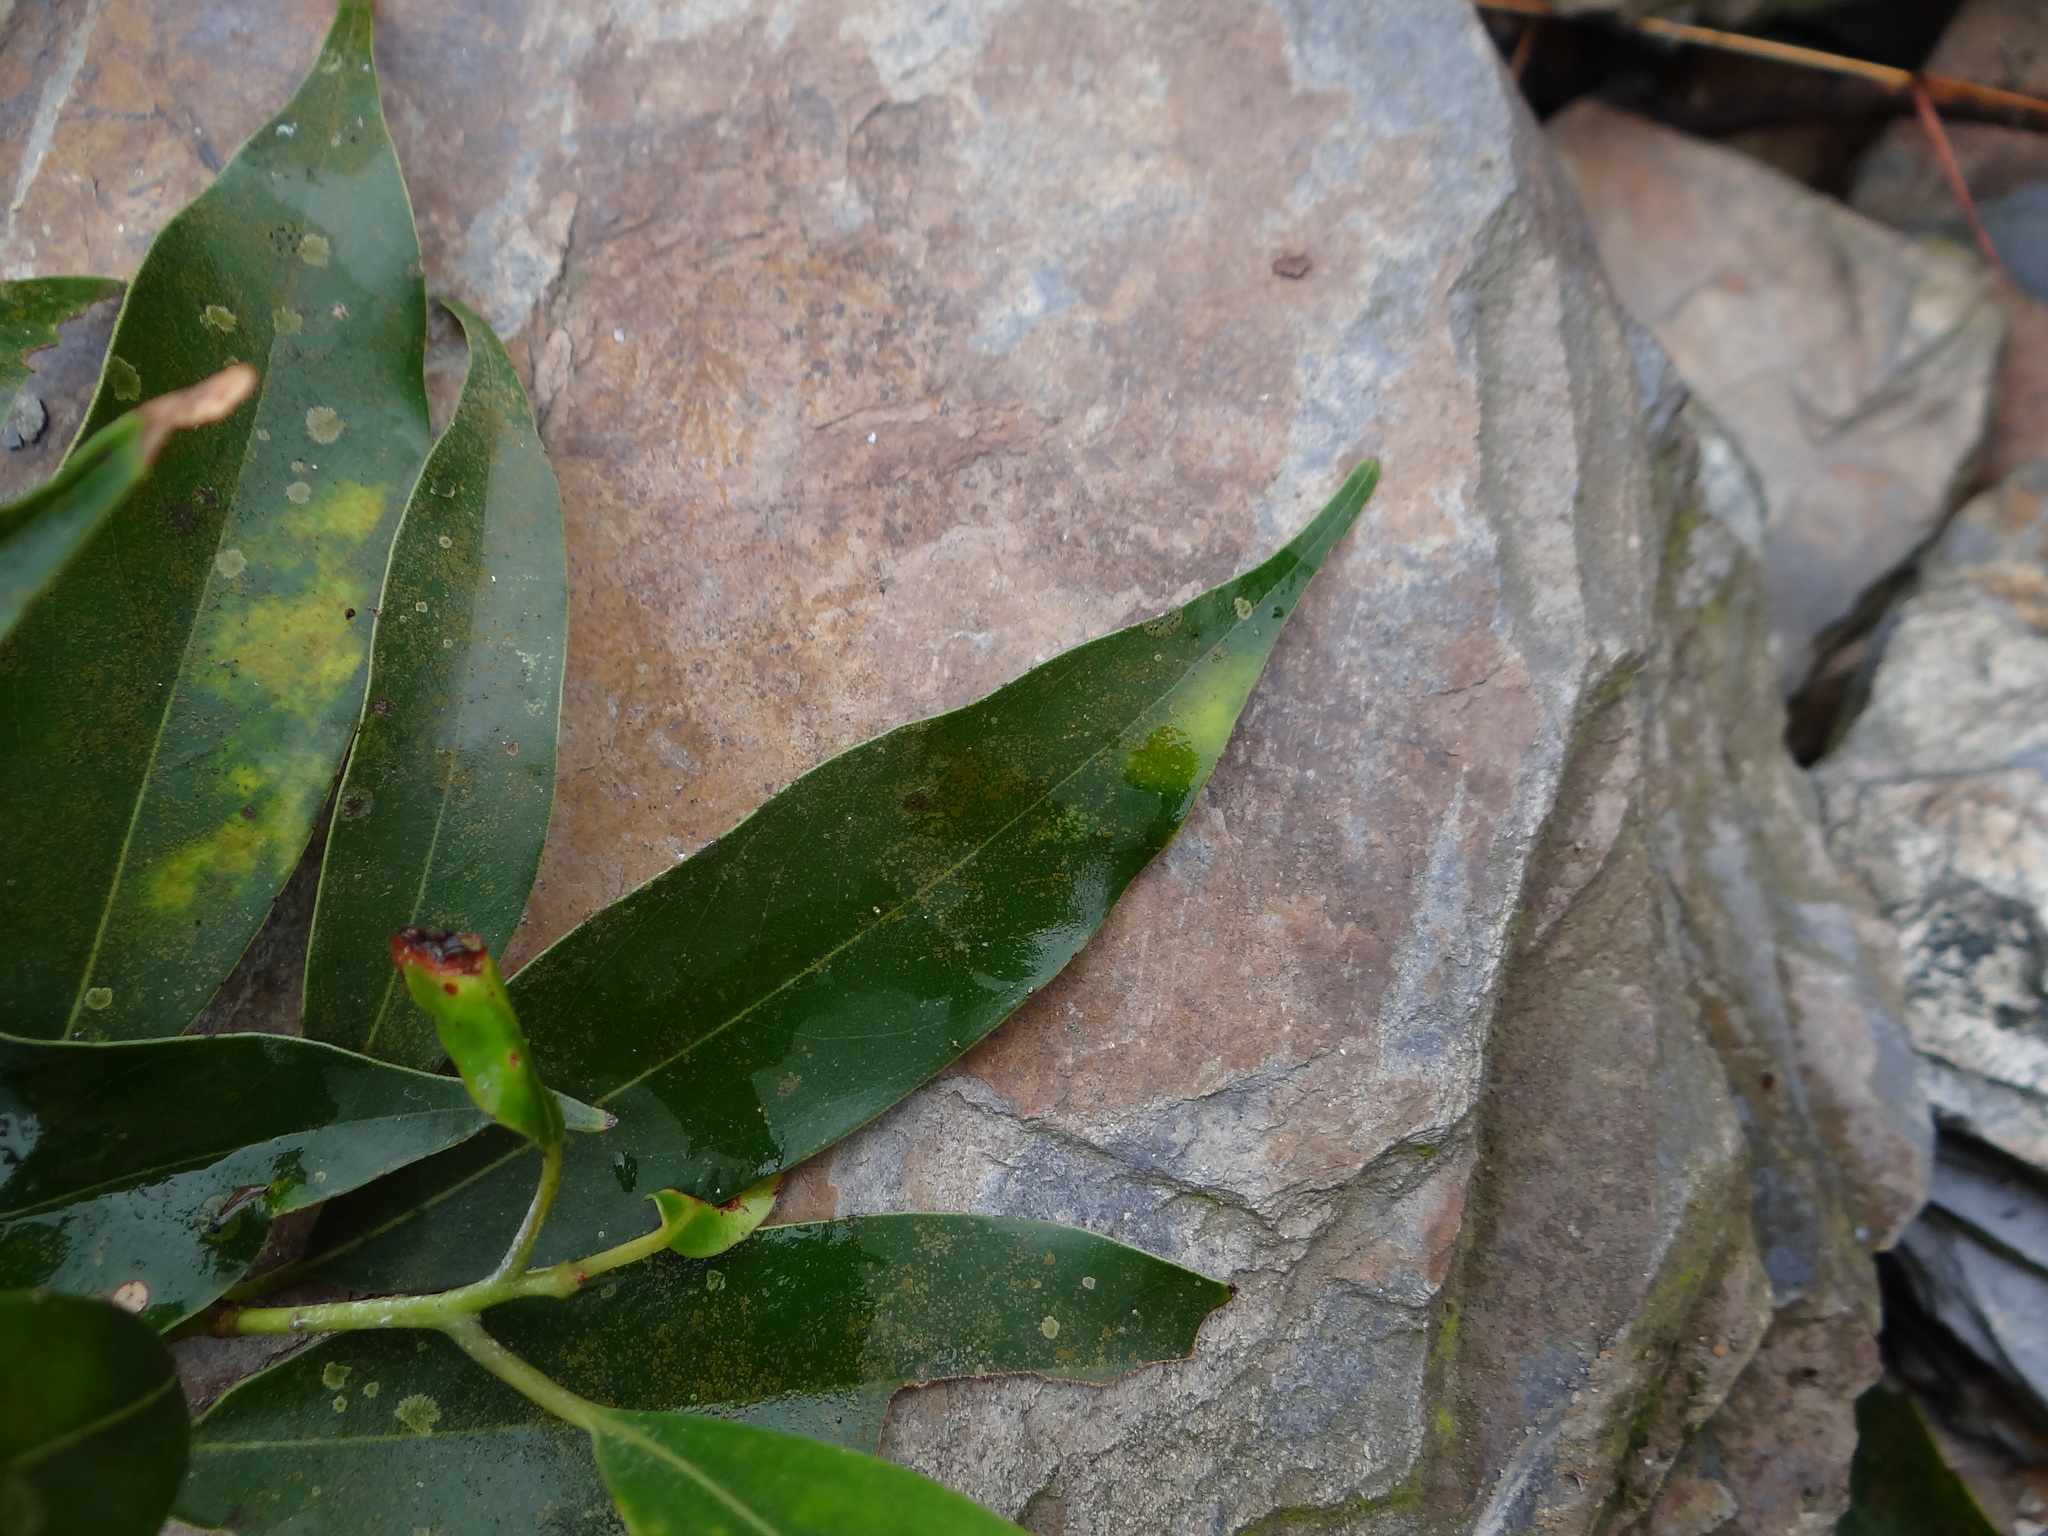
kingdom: Plantae
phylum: Tracheophyta
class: Magnoliopsida
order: Laurales
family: Lauraceae
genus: Machilus
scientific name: Machilus thunbergii
